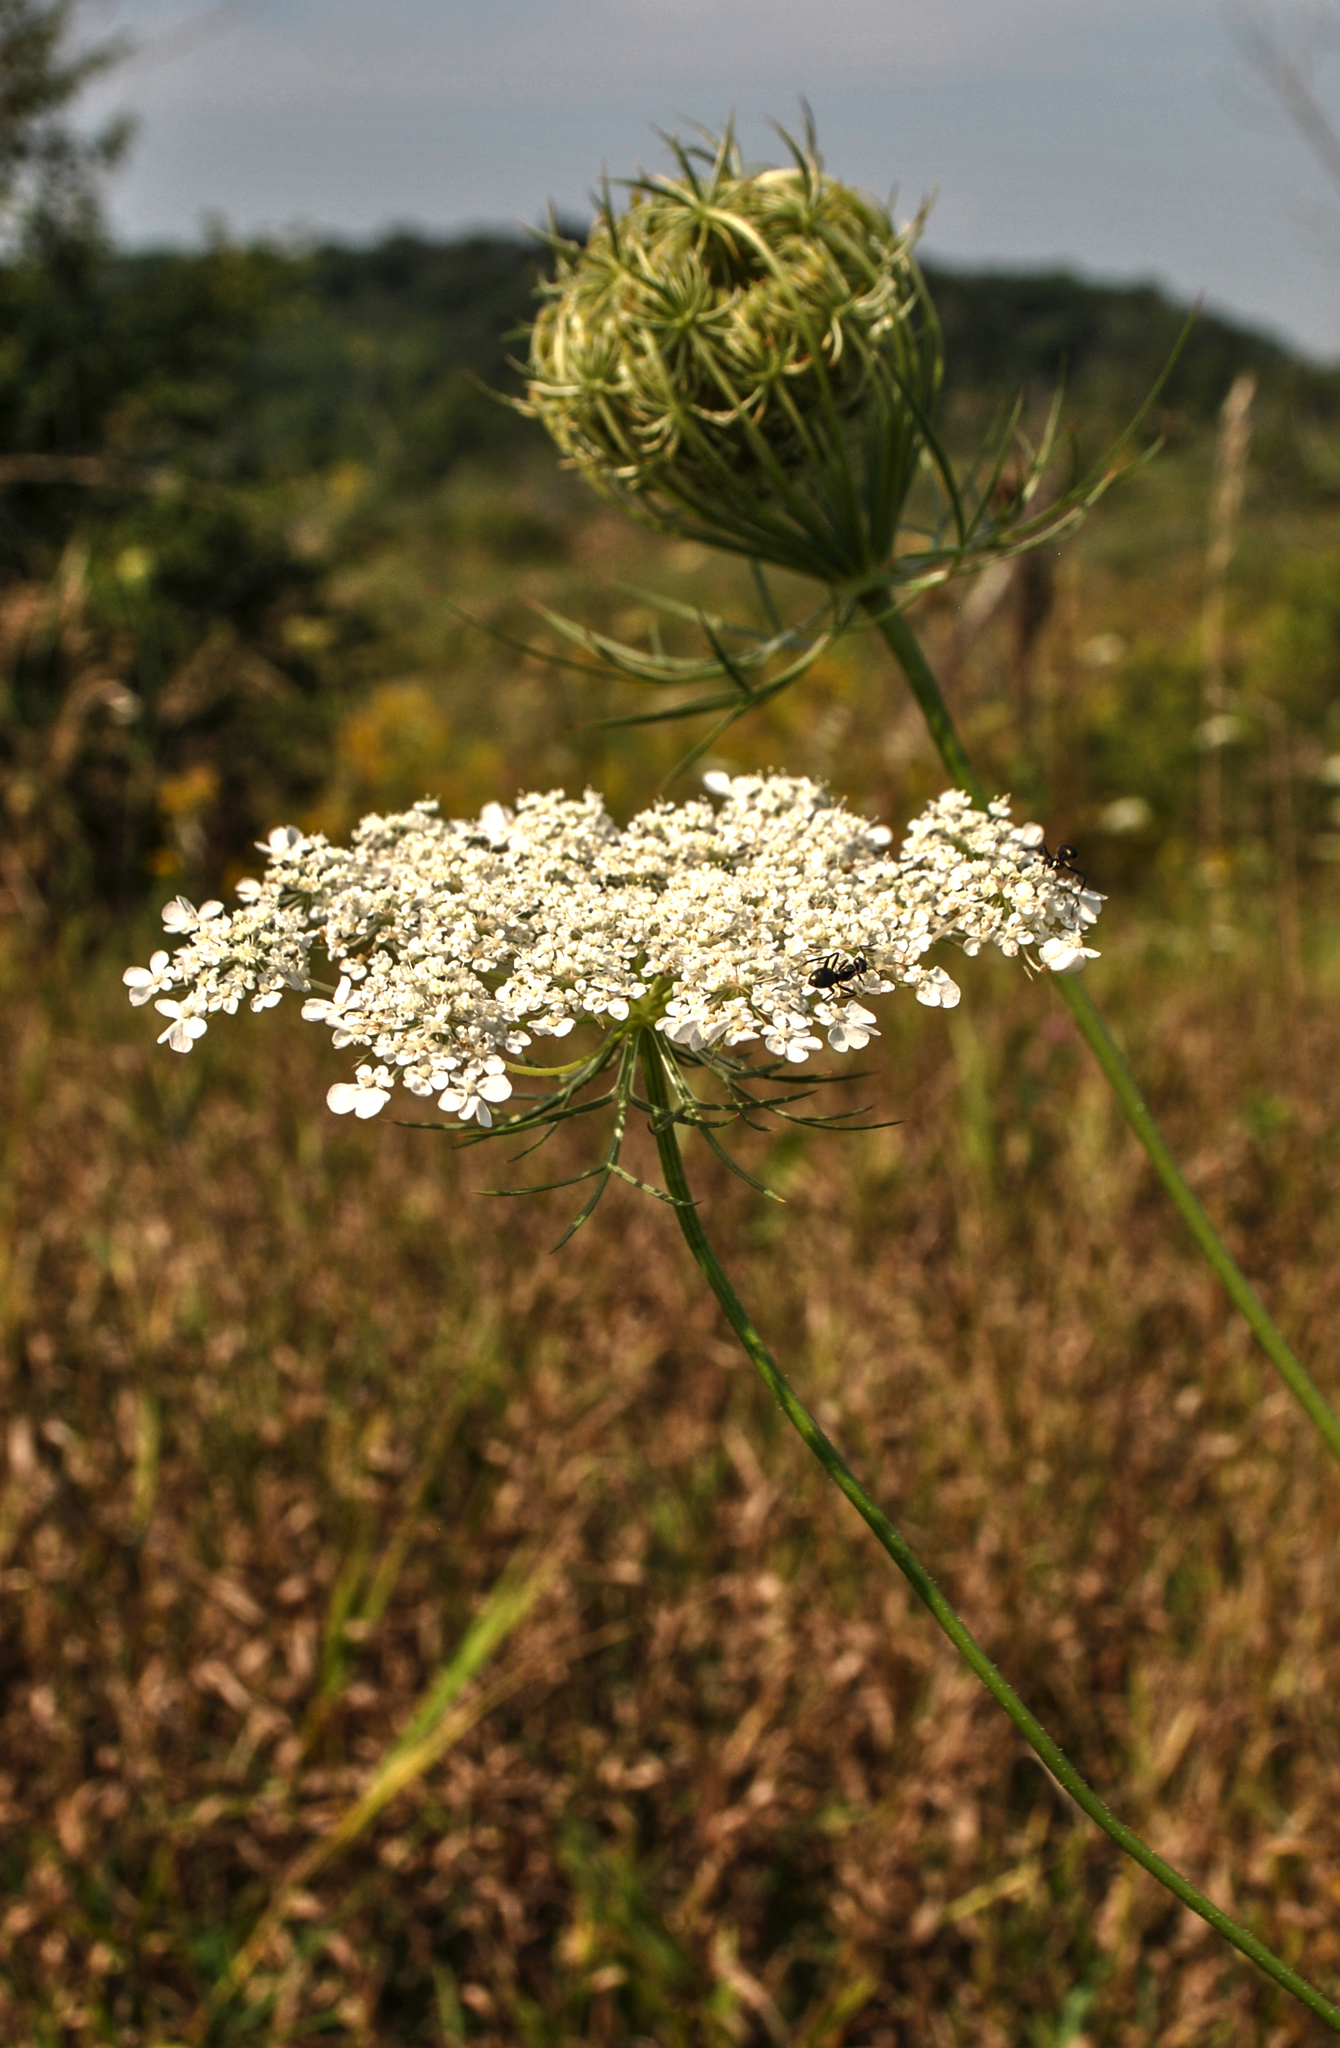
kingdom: Plantae
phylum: Tracheophyta
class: Magnoliopsida
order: Apiales
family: Apiaceae
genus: Daucus
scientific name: Daucus carota
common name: Wild carrot
